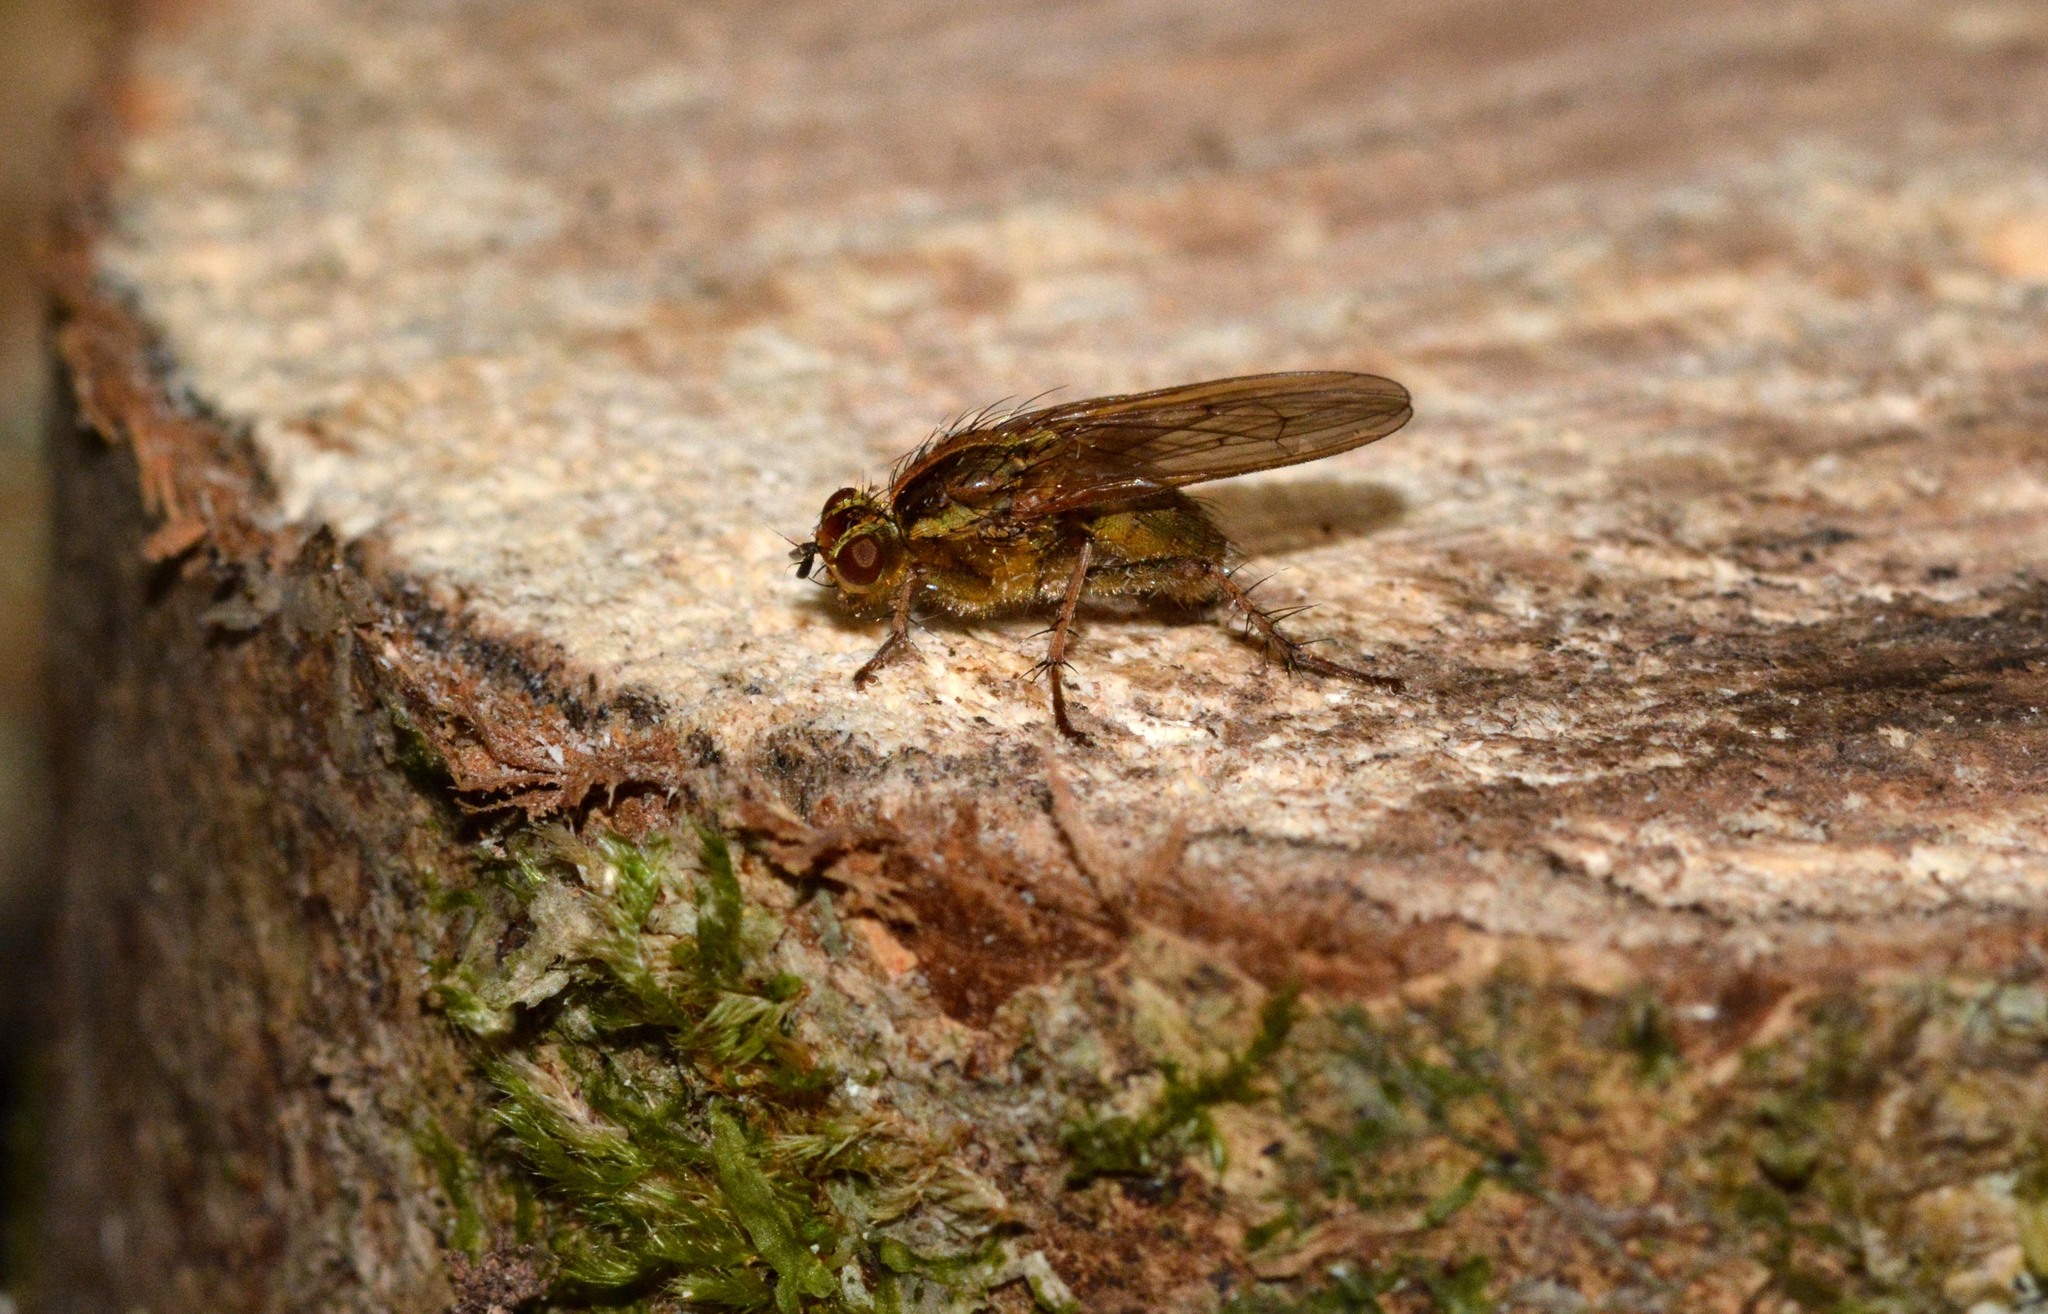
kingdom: Animalia
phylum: Arthropoda
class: Insecta
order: Diptera
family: Scathophagidae
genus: Scathophaga
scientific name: Scathophaga stercoraria
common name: Yellow dung fly
